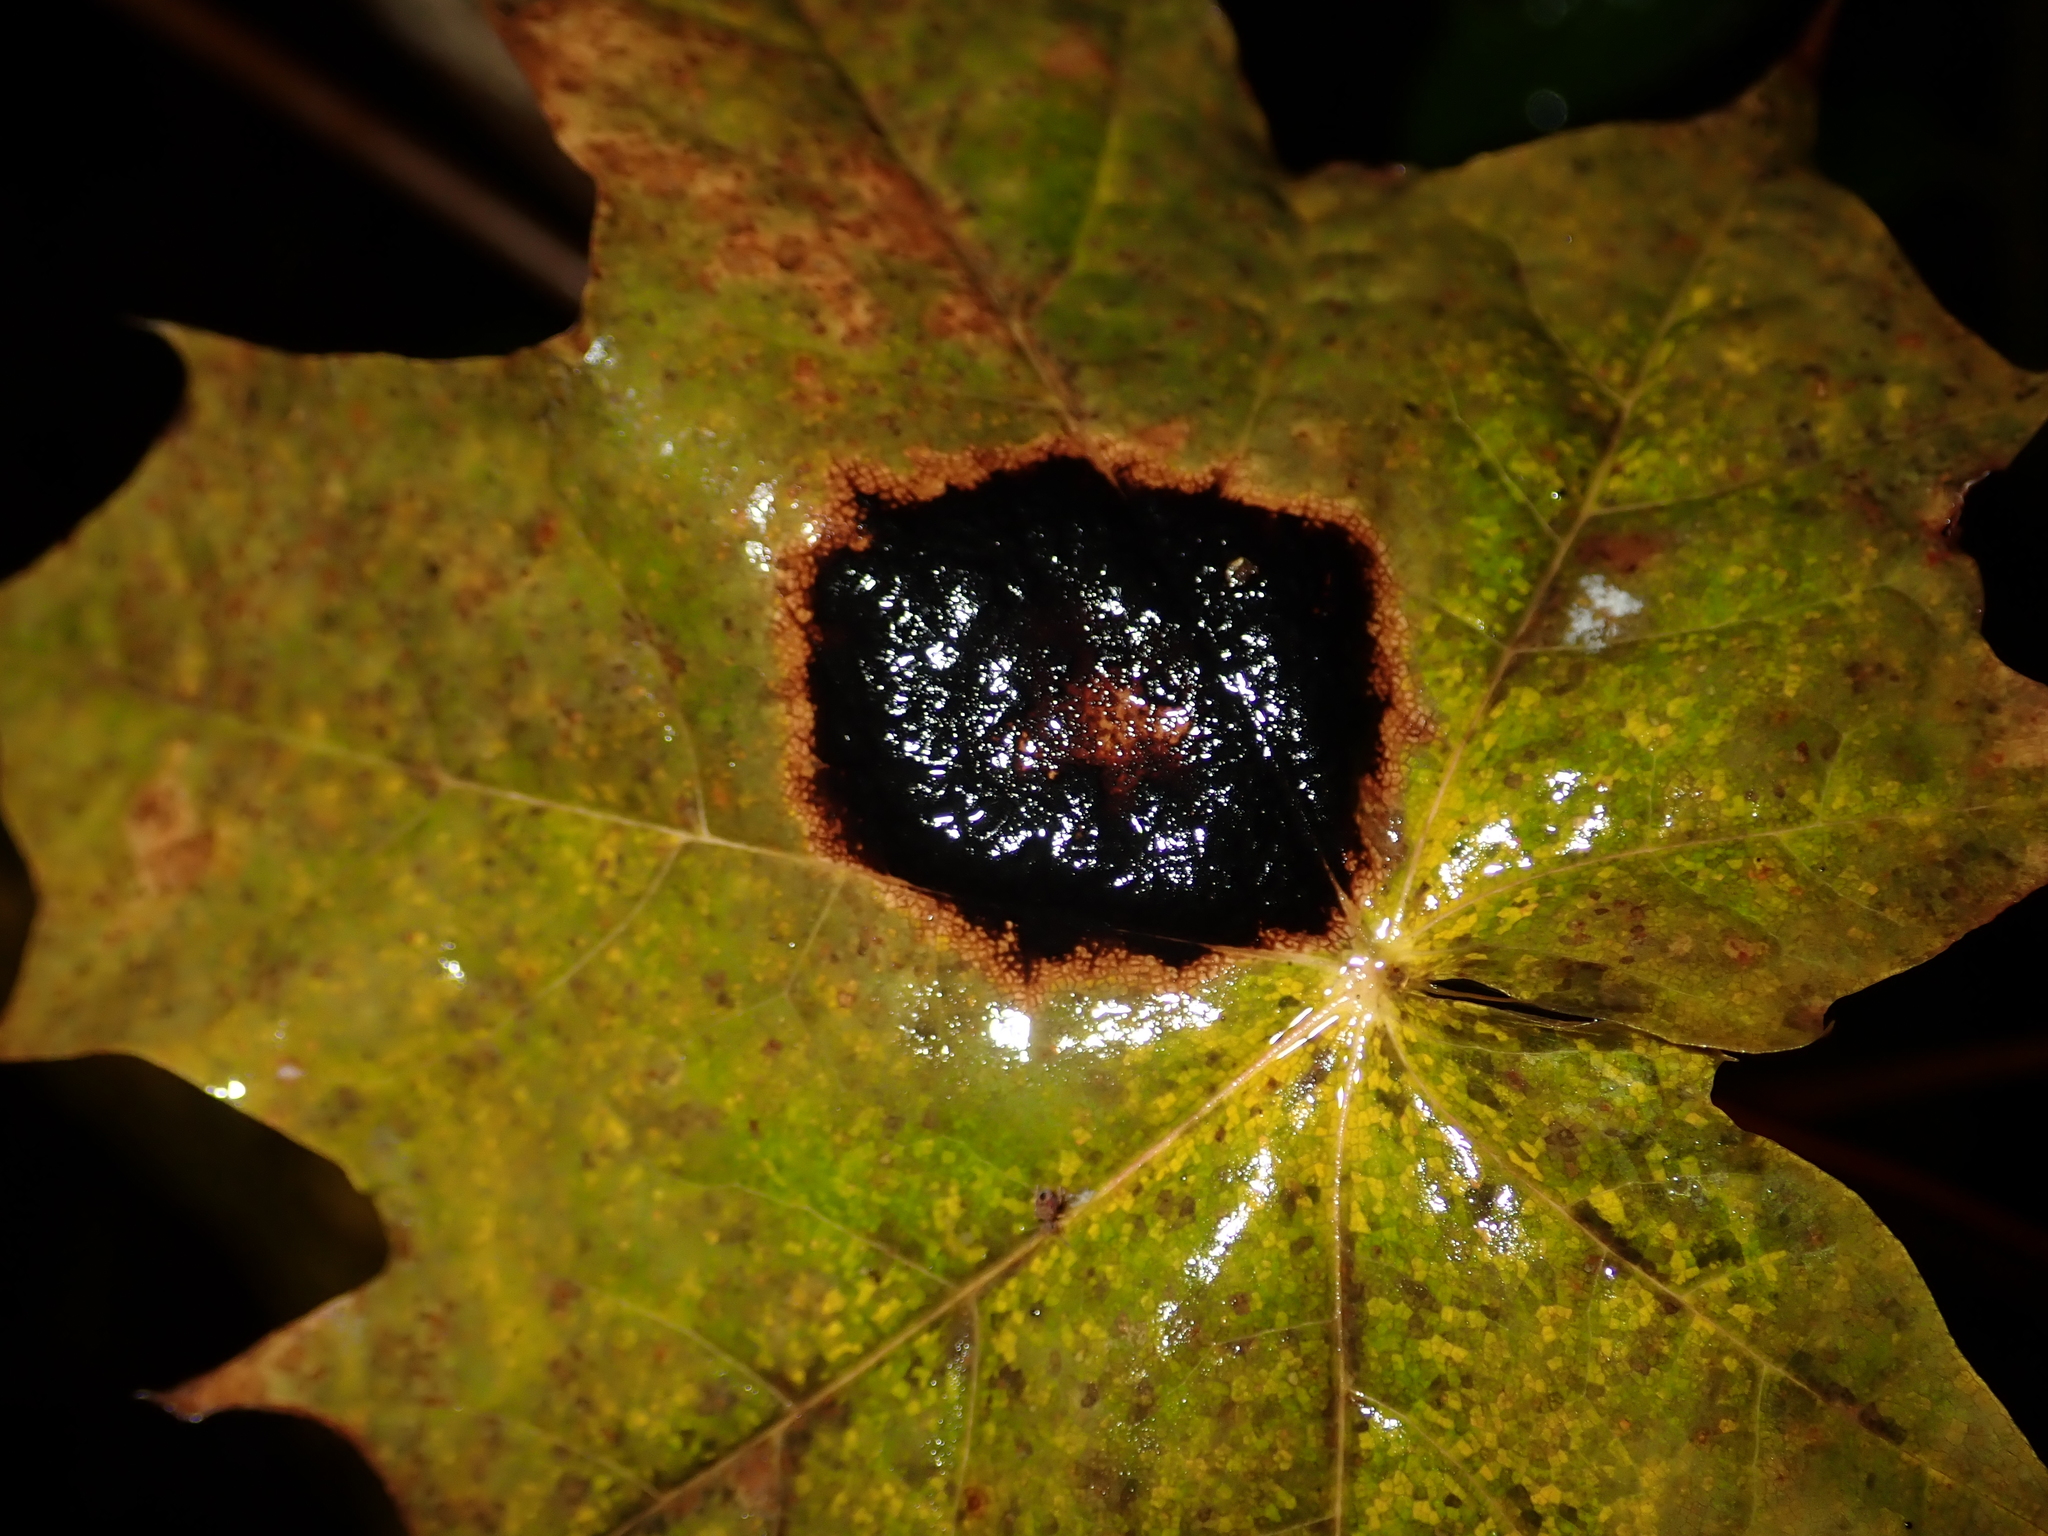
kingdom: Fungi
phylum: Ascomycota
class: Leotiomycetes
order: Rhytismatales
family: Rhytismataceae
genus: Rhytisma
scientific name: Rhytisma acerinum
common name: European tar spot
